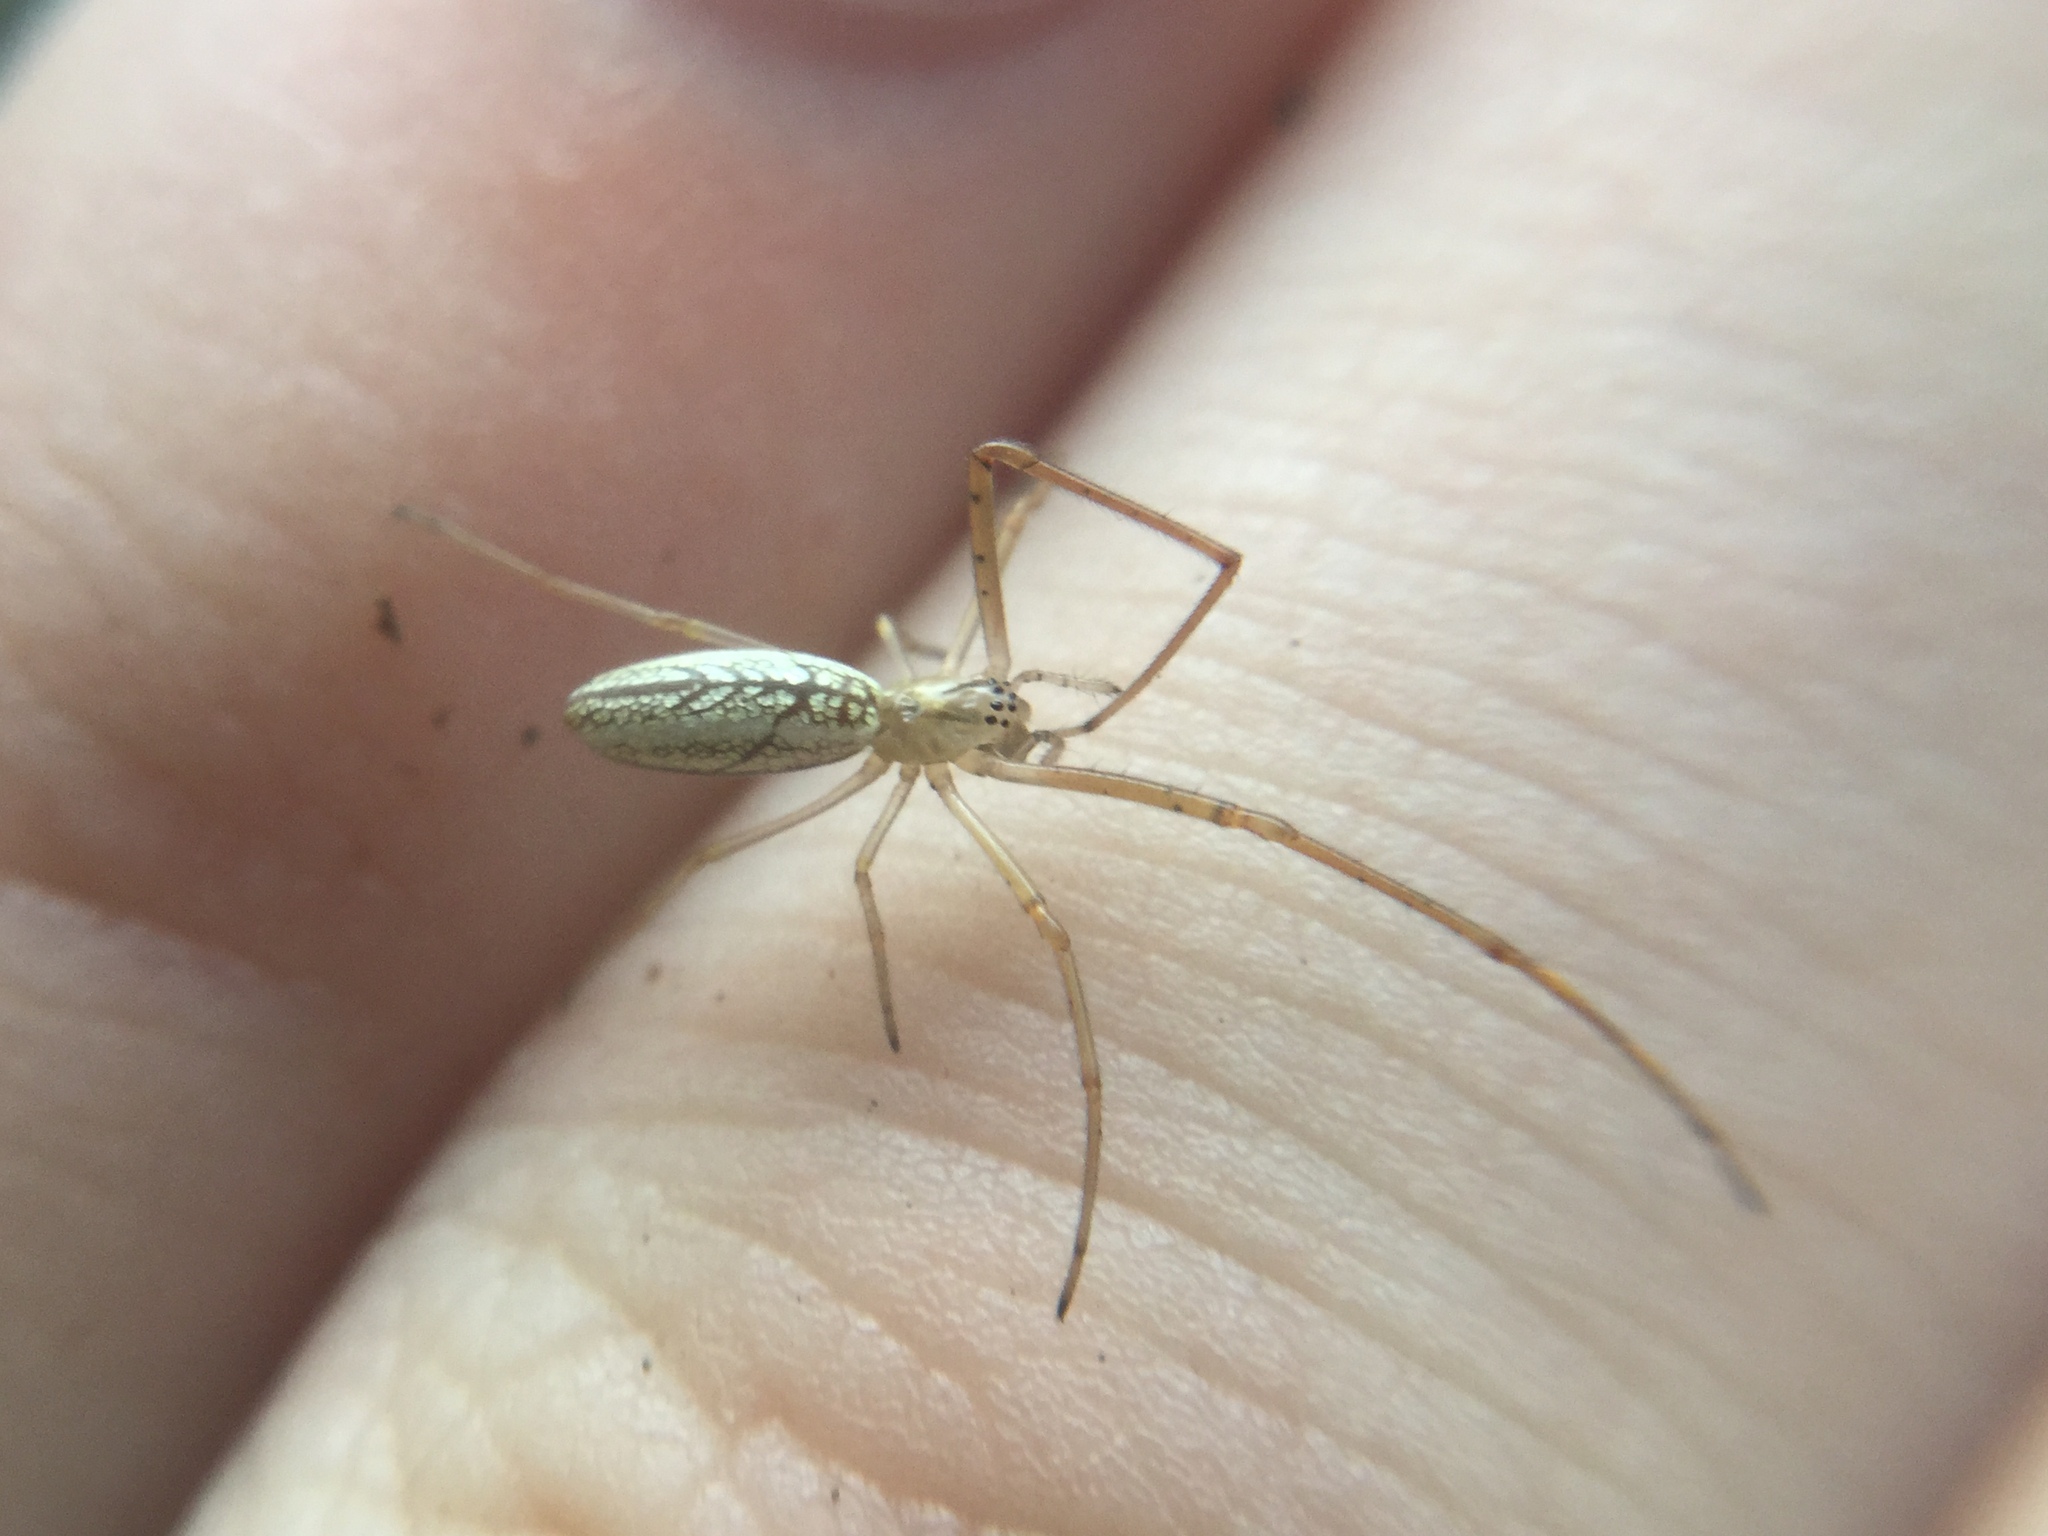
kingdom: Animalia
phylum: Arthropoda
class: Arachnida
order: Araneae
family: Tetragnathidae
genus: Tetragnatha
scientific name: Tetragnatha laboriosa
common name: Longjawed orb weavers
